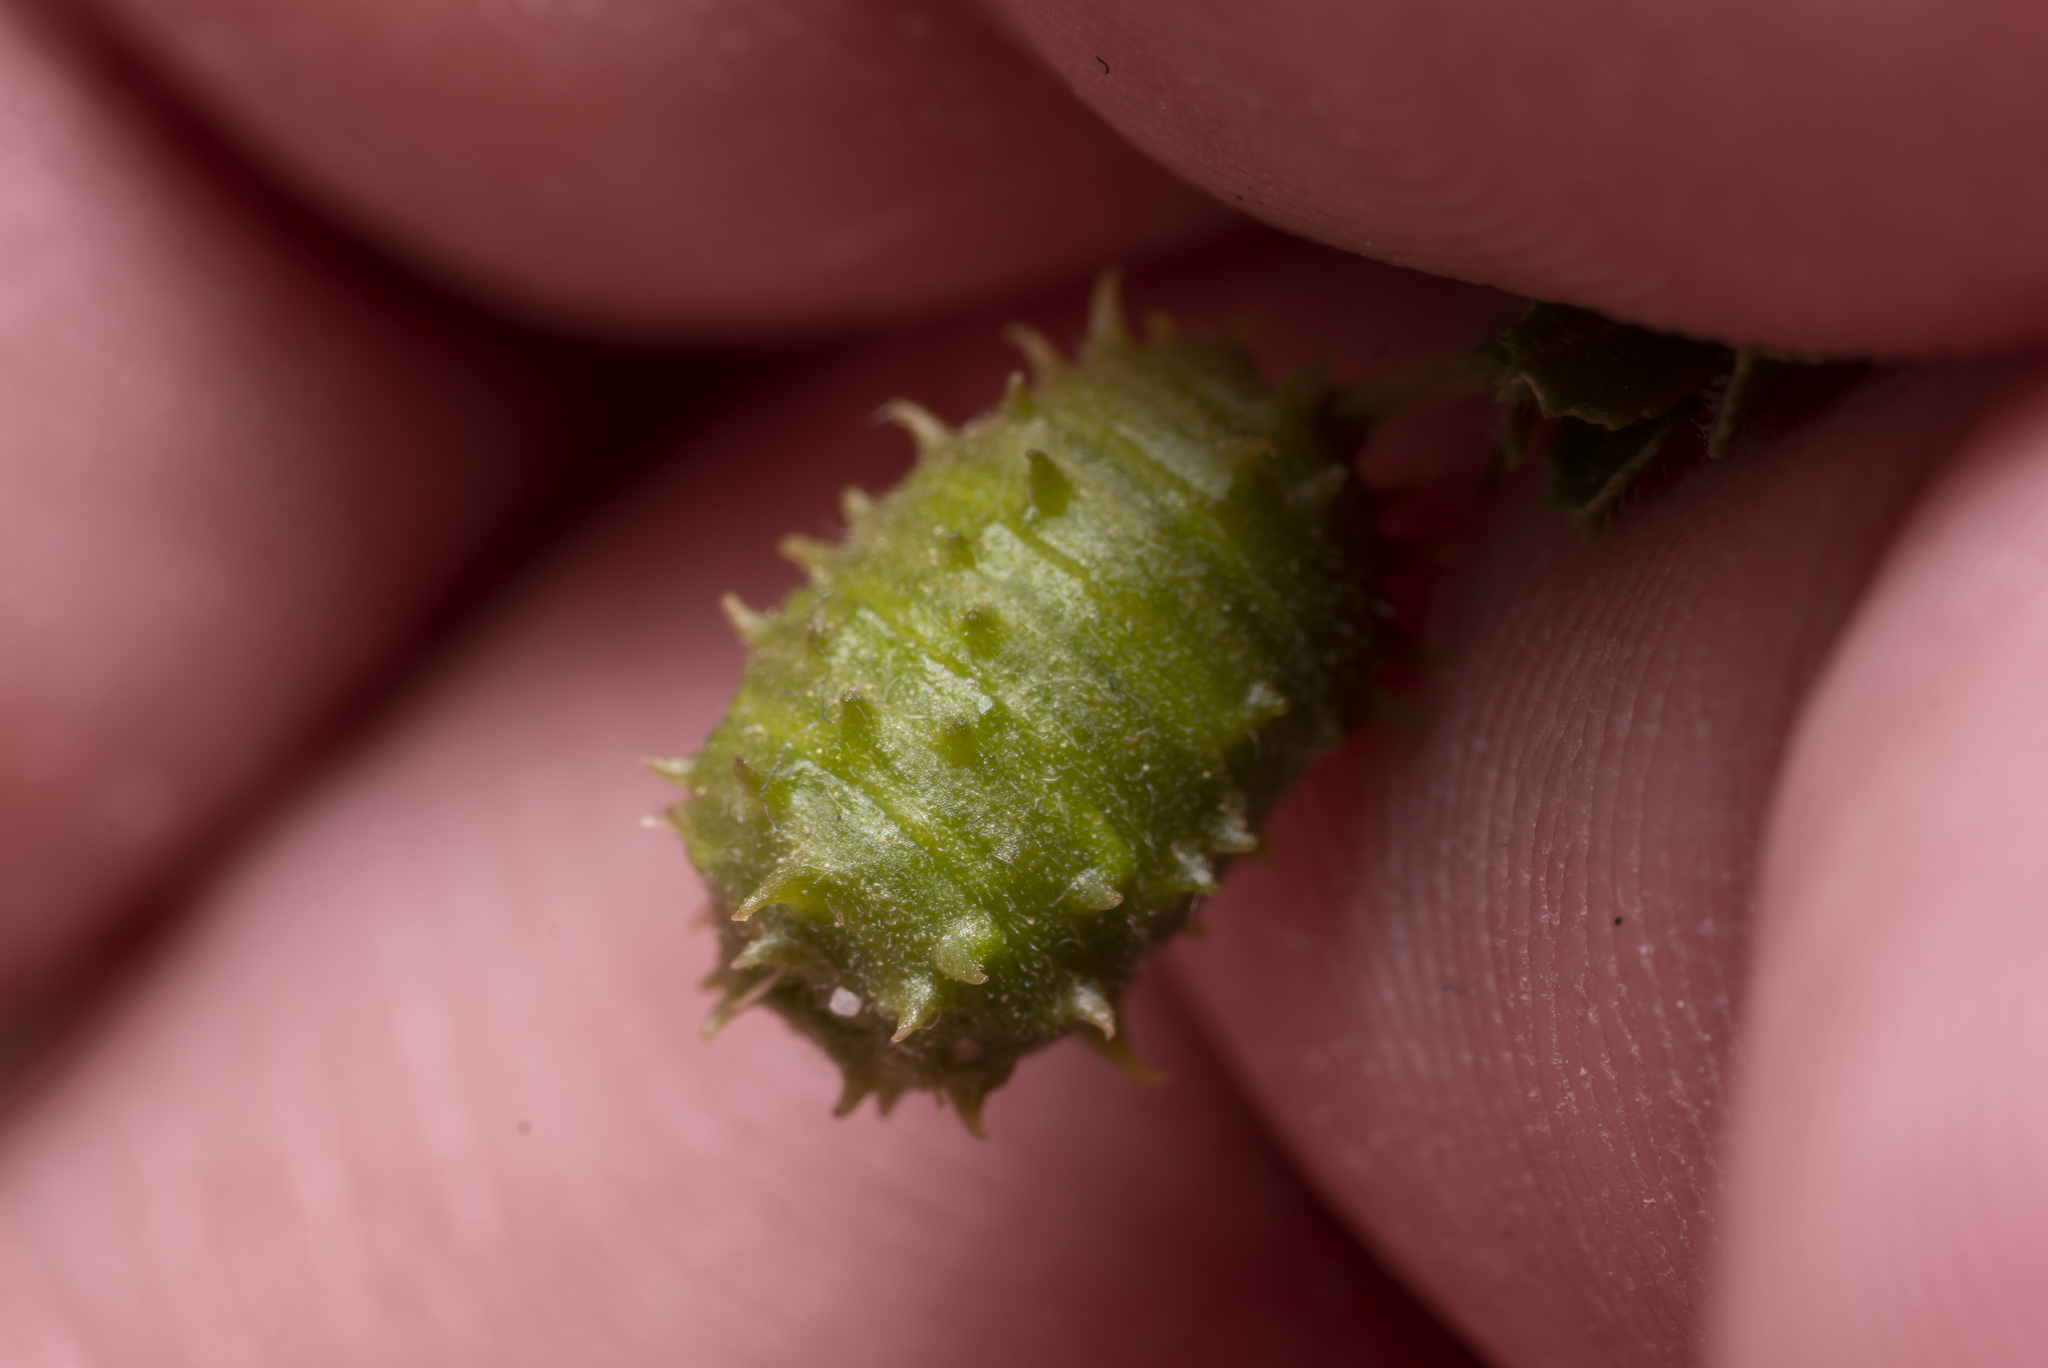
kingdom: Plantae
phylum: Tracheophyta
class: Magnoliopsida
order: Fabales
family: Fabaceae
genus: Medicago
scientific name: Medicago constricta
